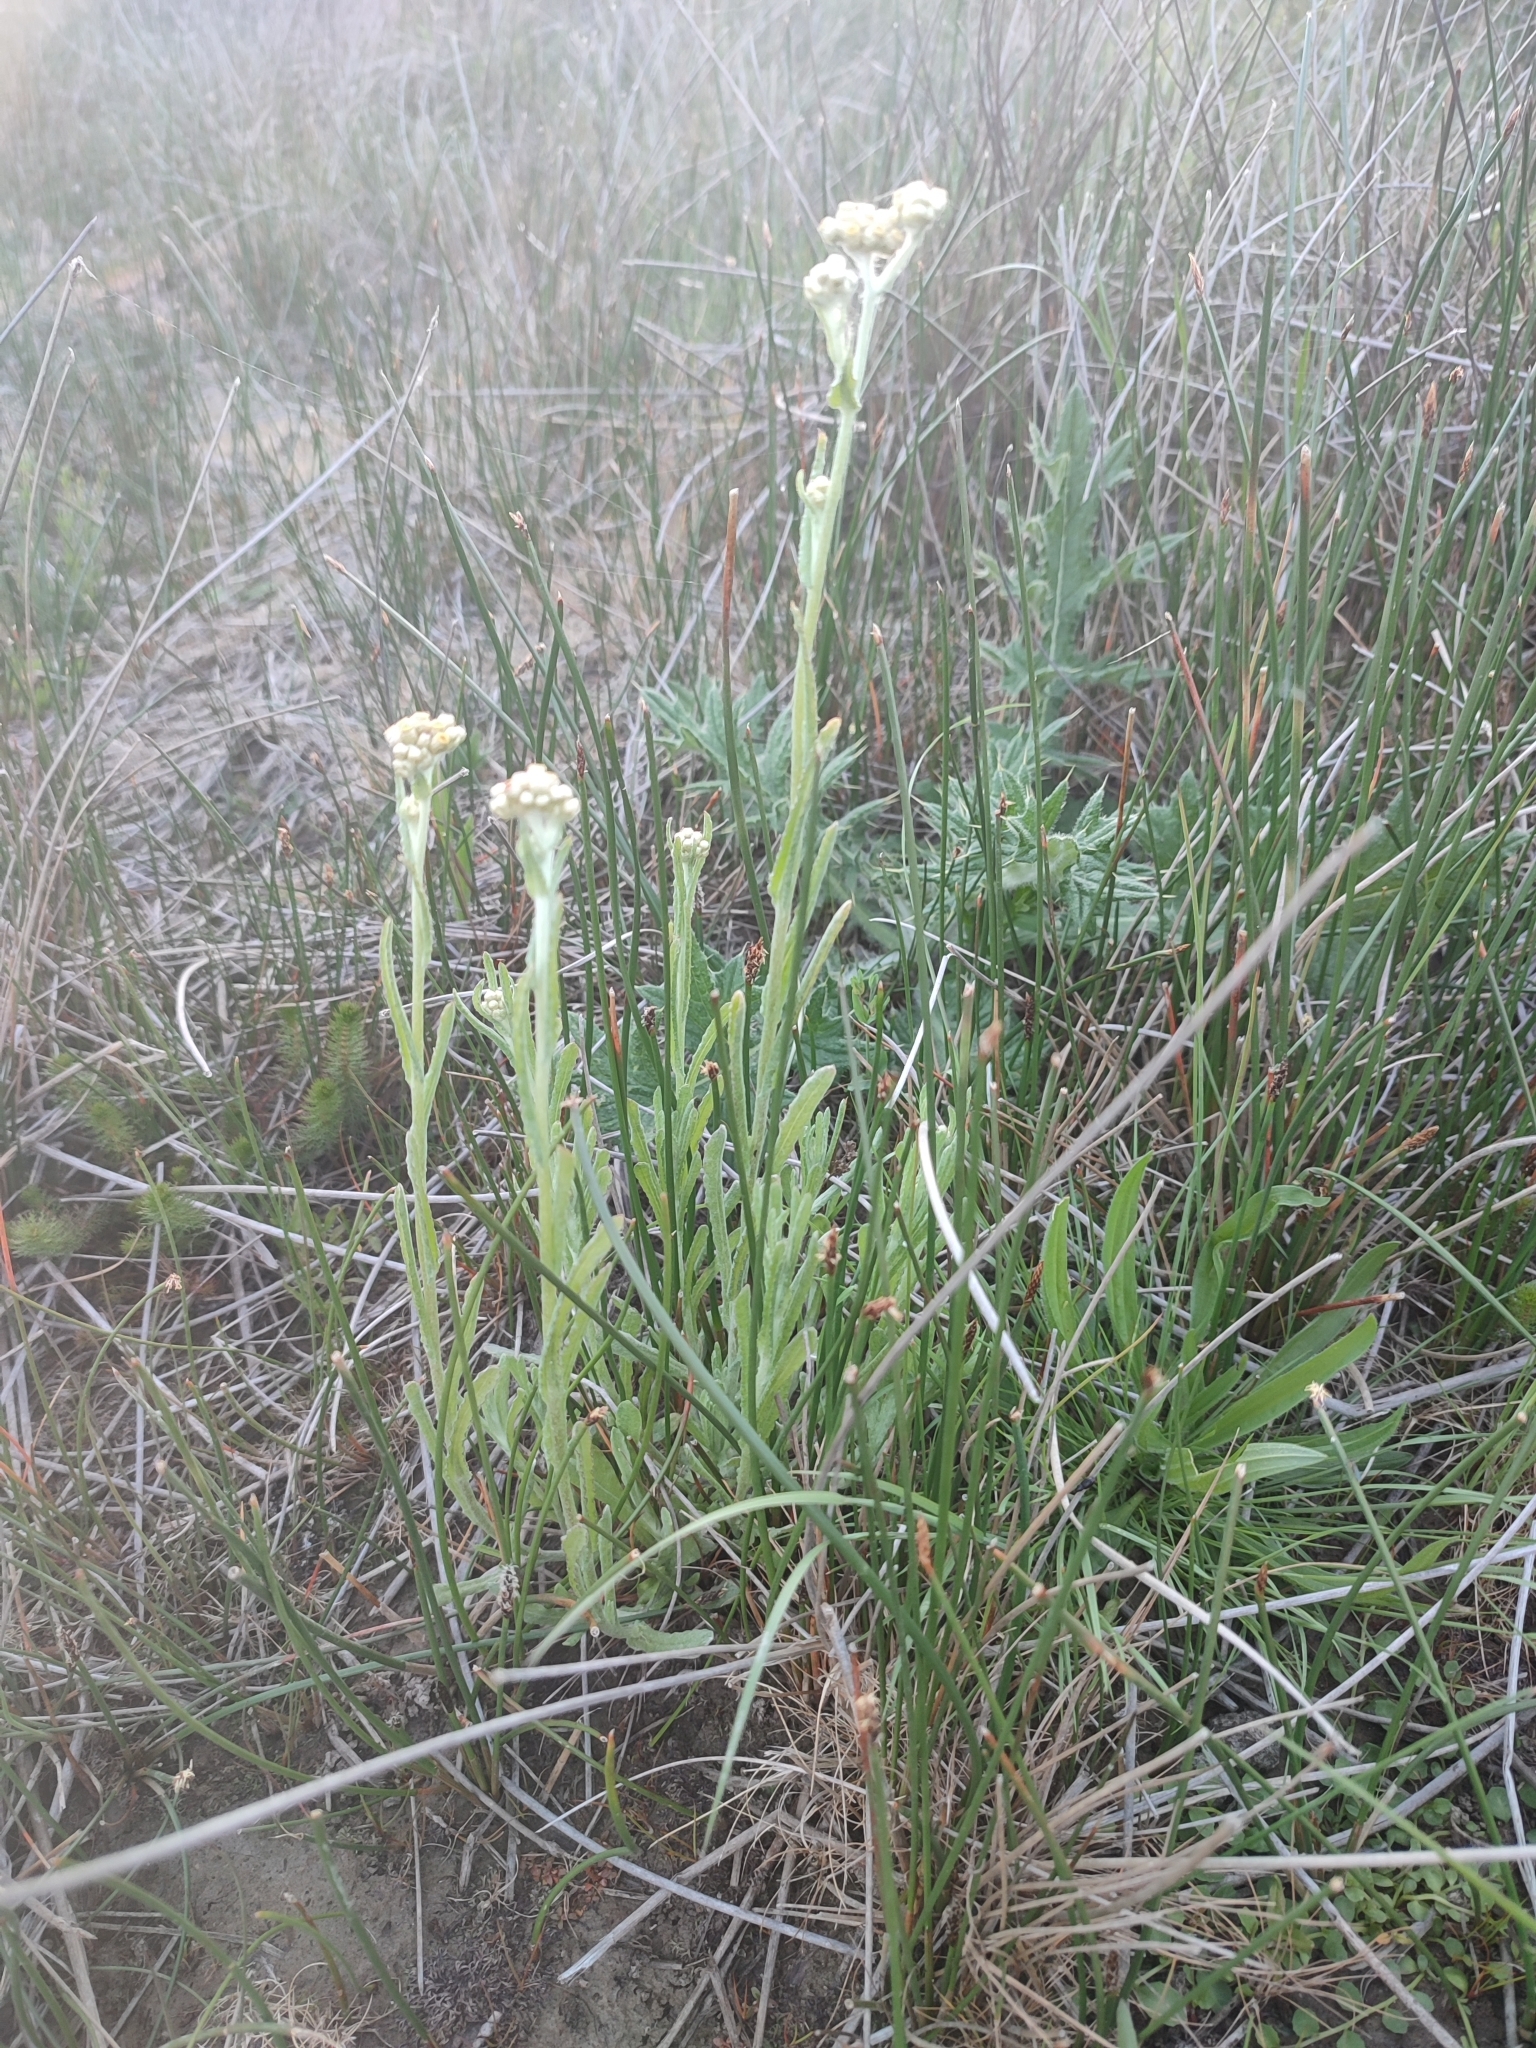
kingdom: Plantae
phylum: Tracheophyta
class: Magnoliopsida
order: Asterales
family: Asteraceae
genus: Helichrysum
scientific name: Helichrysum luteoalbum
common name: Daisy
